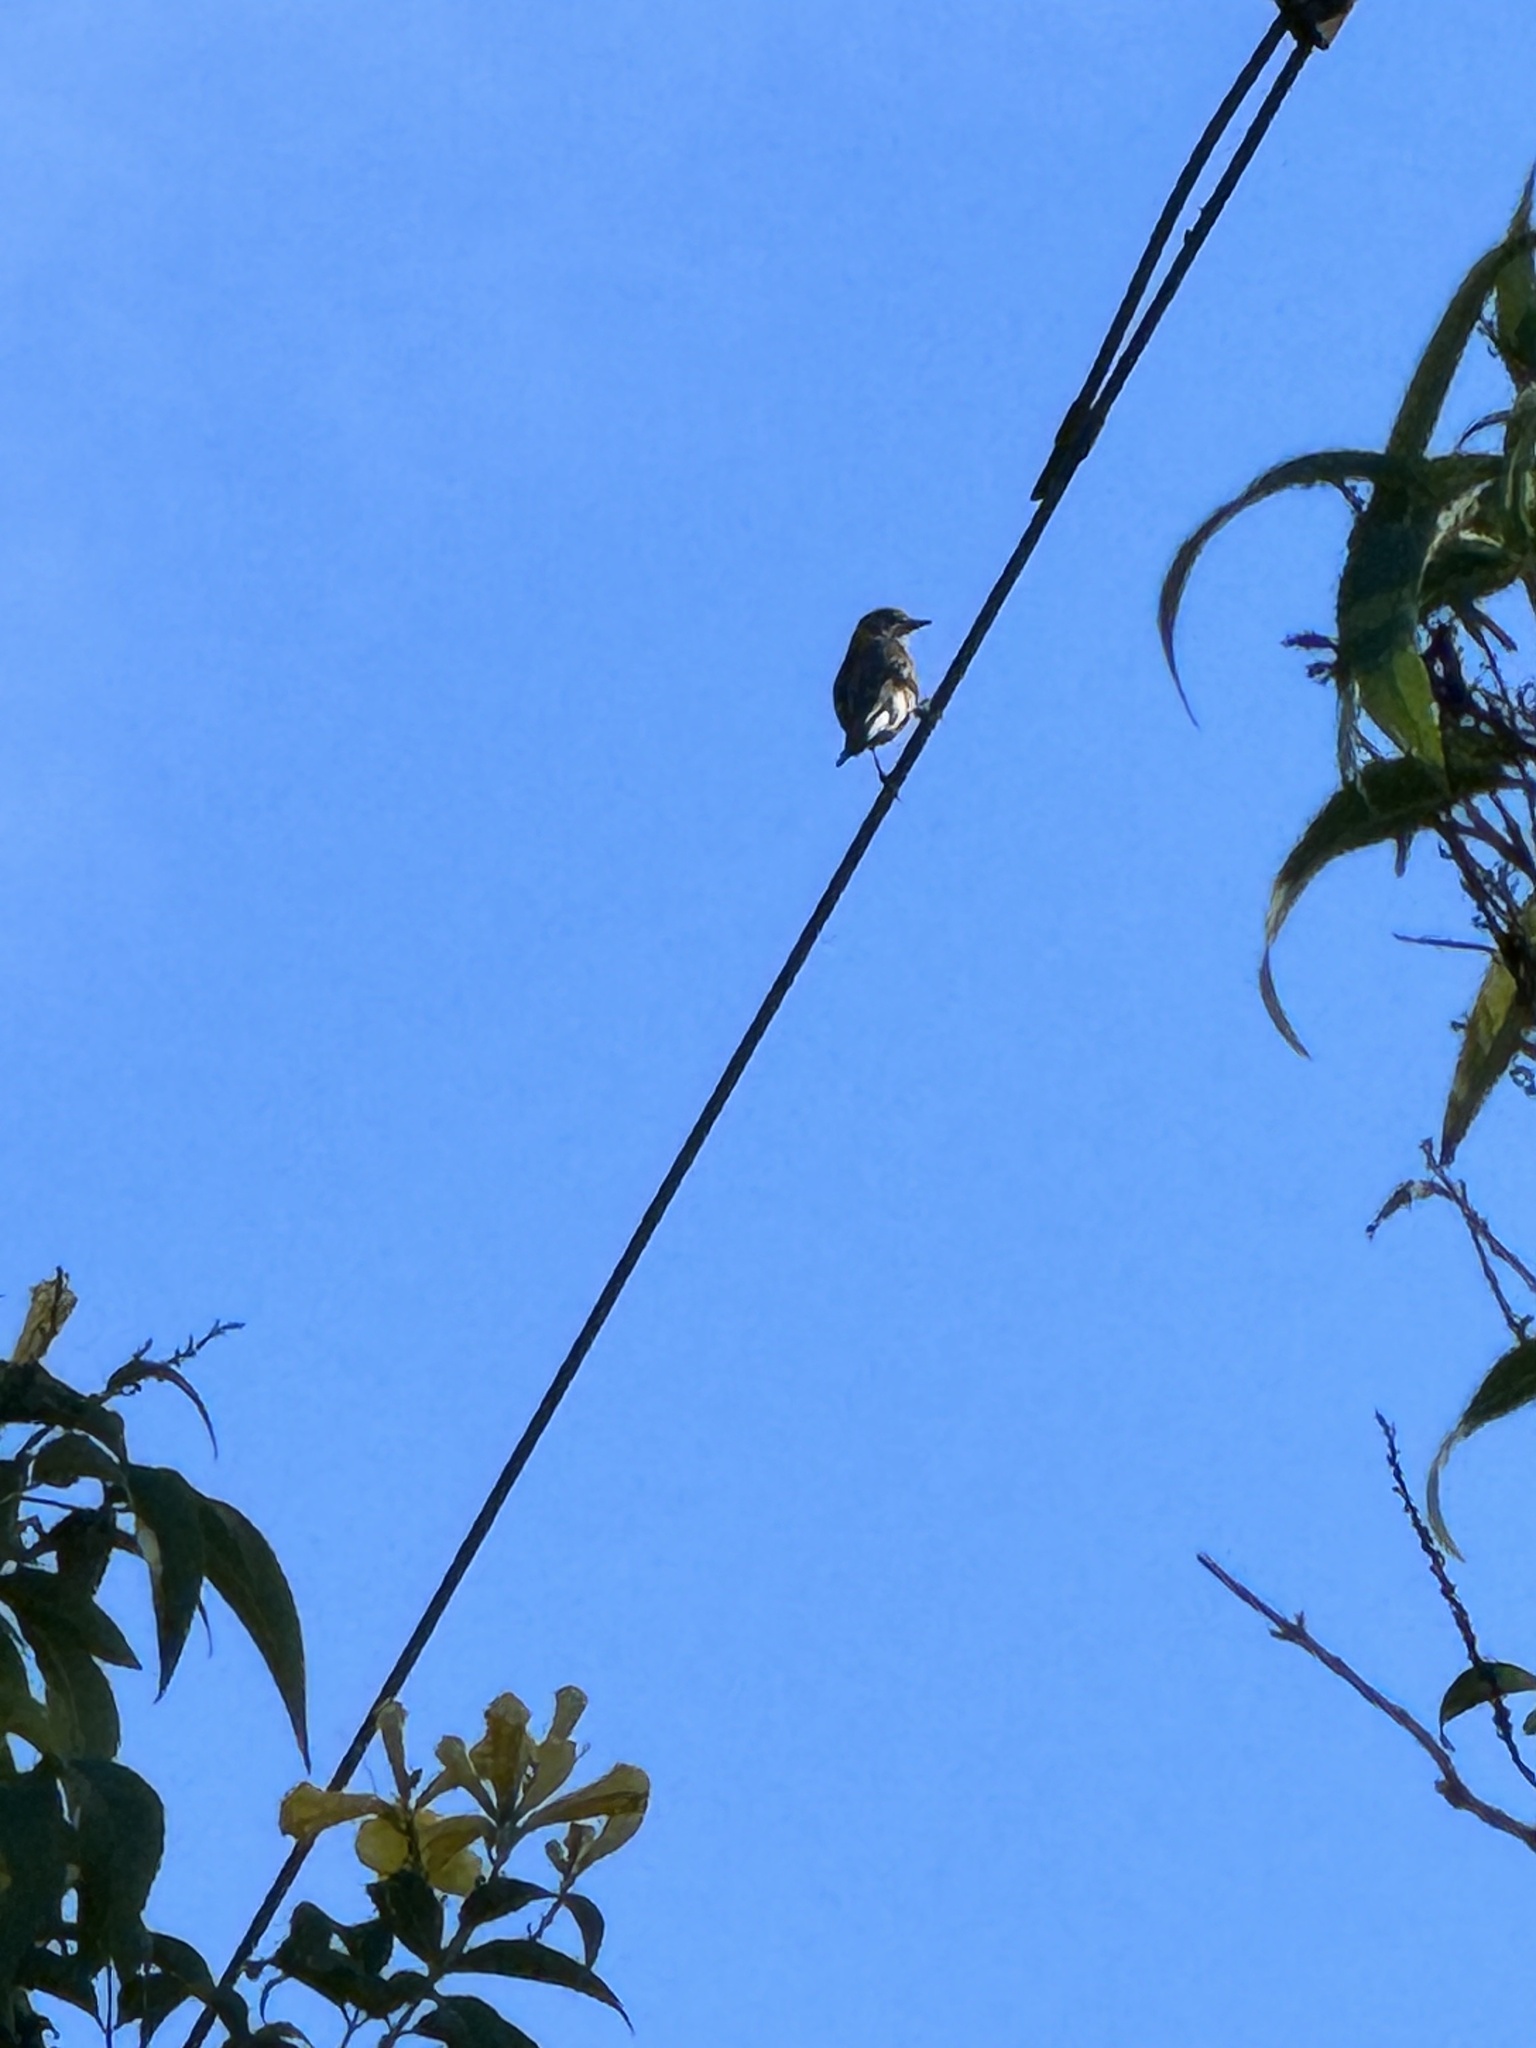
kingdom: Animalia
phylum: Chordata
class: Aves
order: Passeriformes
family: Parulidae
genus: Setophaga
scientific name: Setophaga coronata
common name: Myrtle warbler
